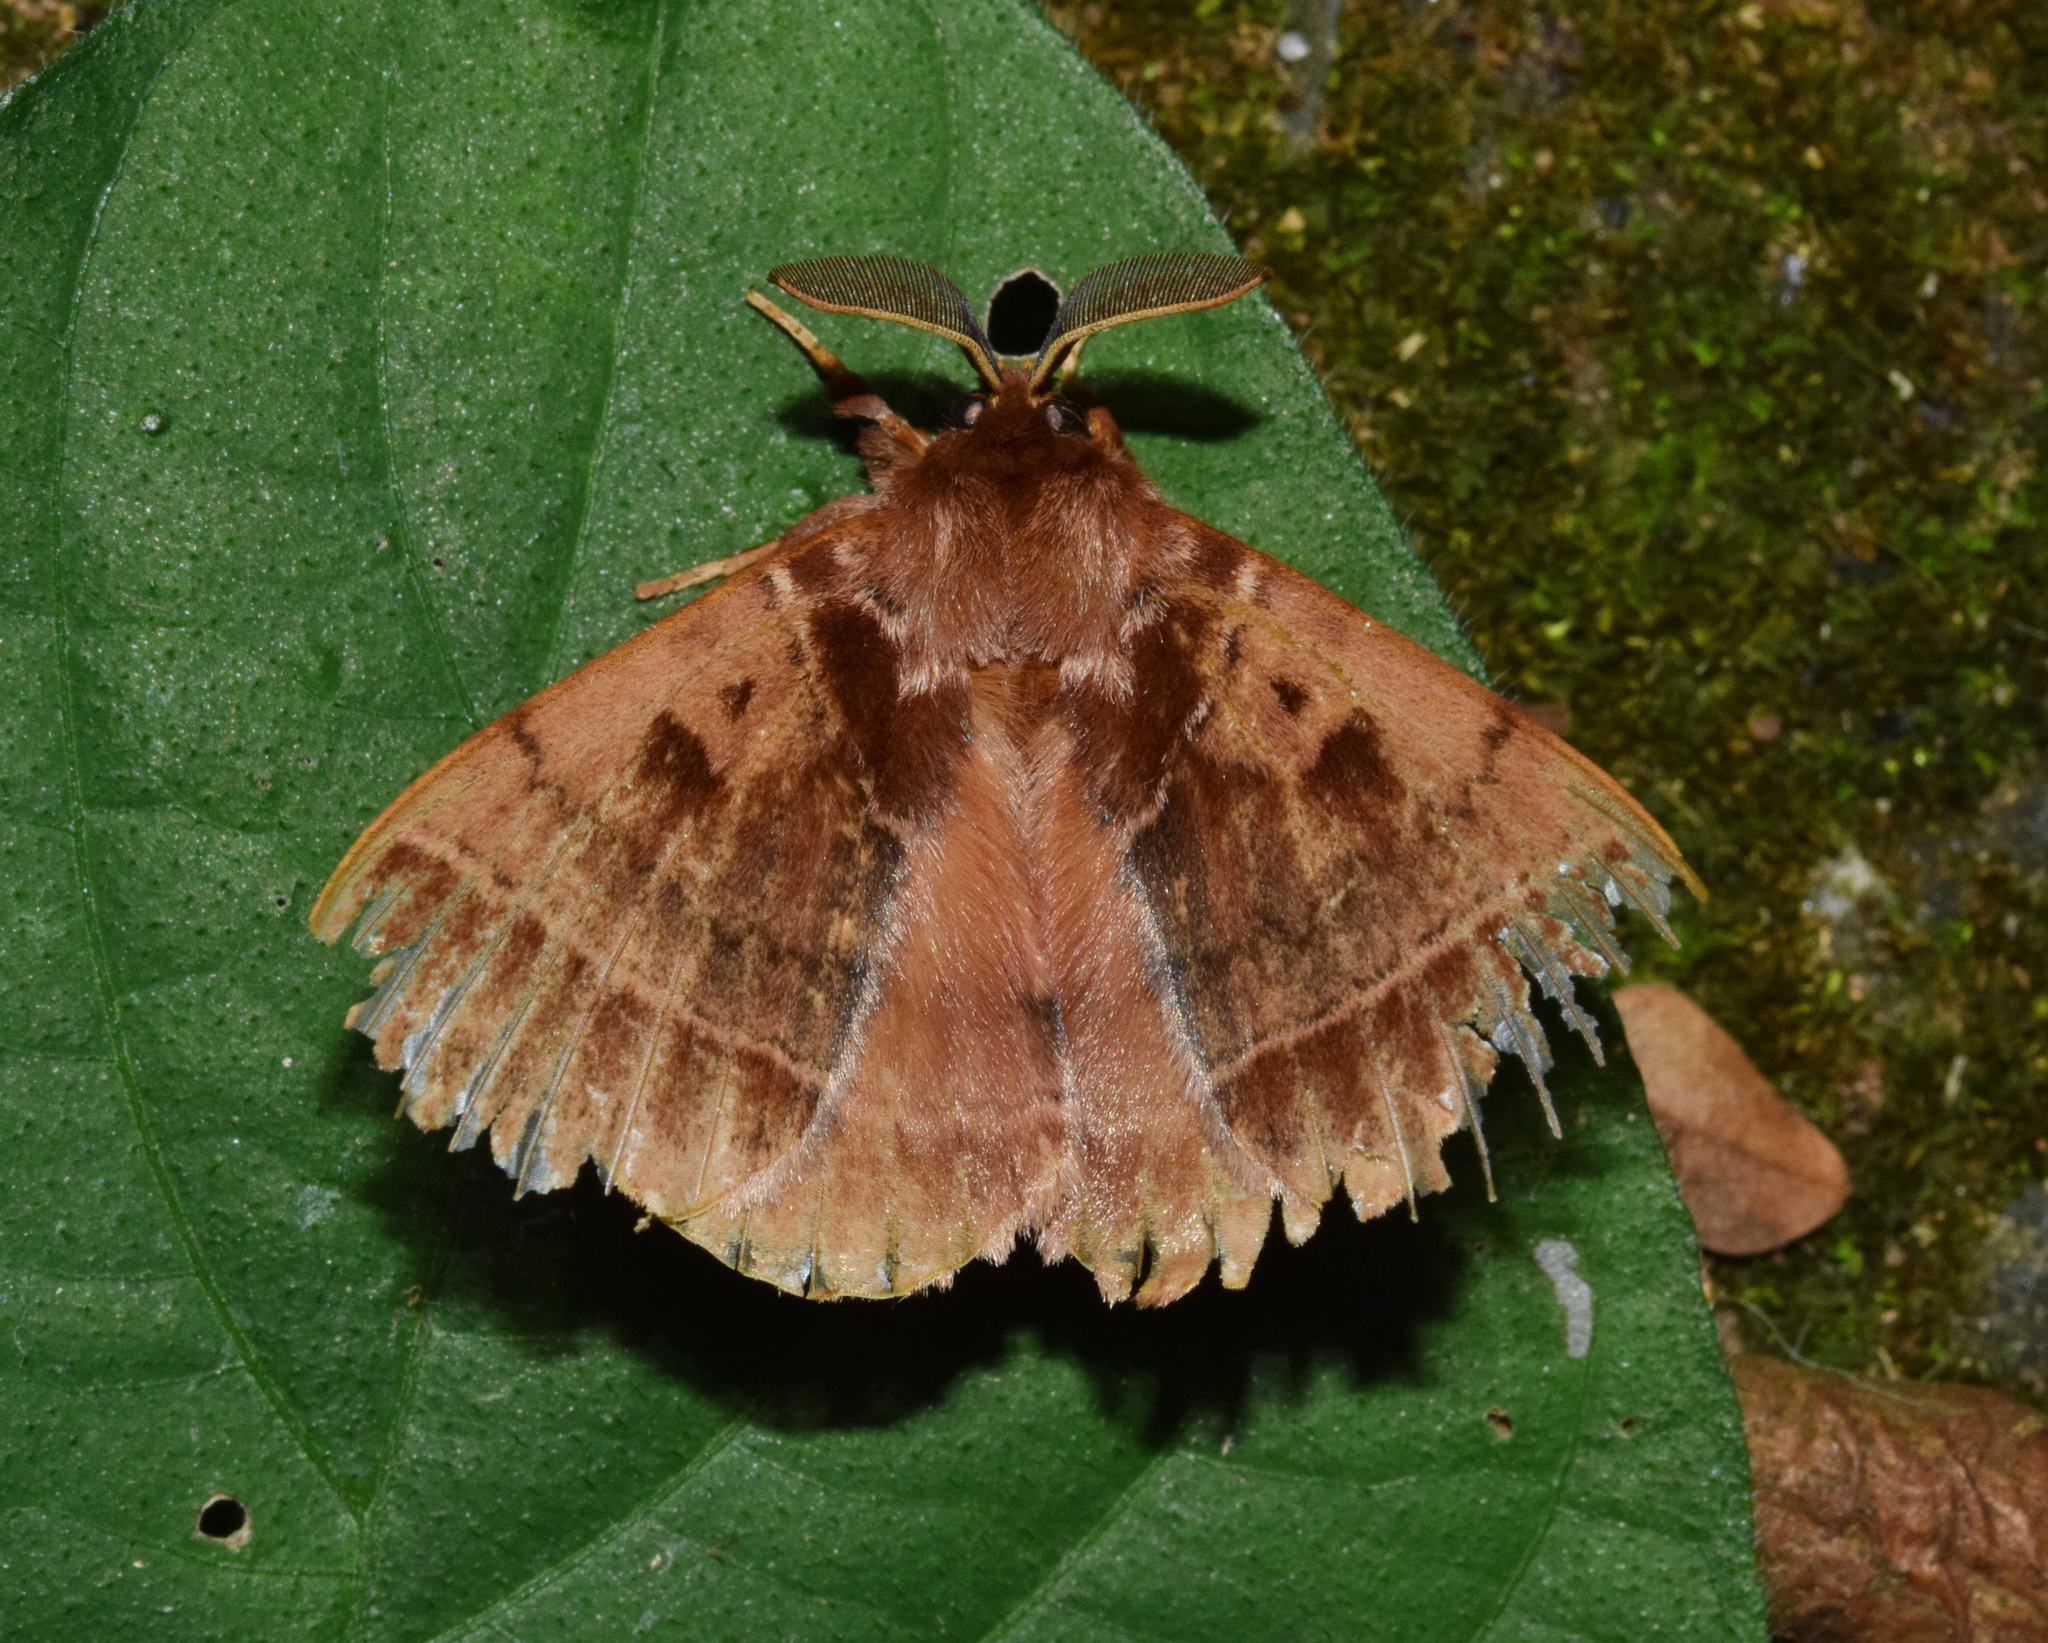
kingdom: Animalia
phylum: Arthropoda
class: Insecta
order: Lepidoptera
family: Eupterotidae
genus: Poloma
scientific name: Poloma angulata
